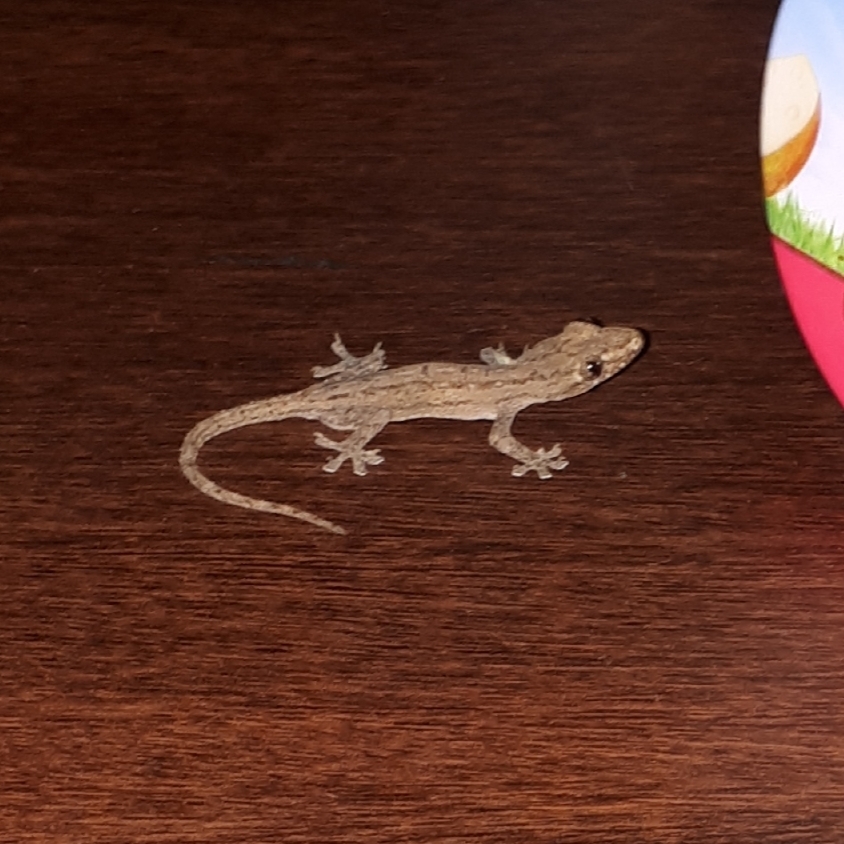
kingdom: Animalia
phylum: Chordata
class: Squamata
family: Gekkonidae
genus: Hemidactylus
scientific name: Hemidactylus frenatus
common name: Common house gecko
